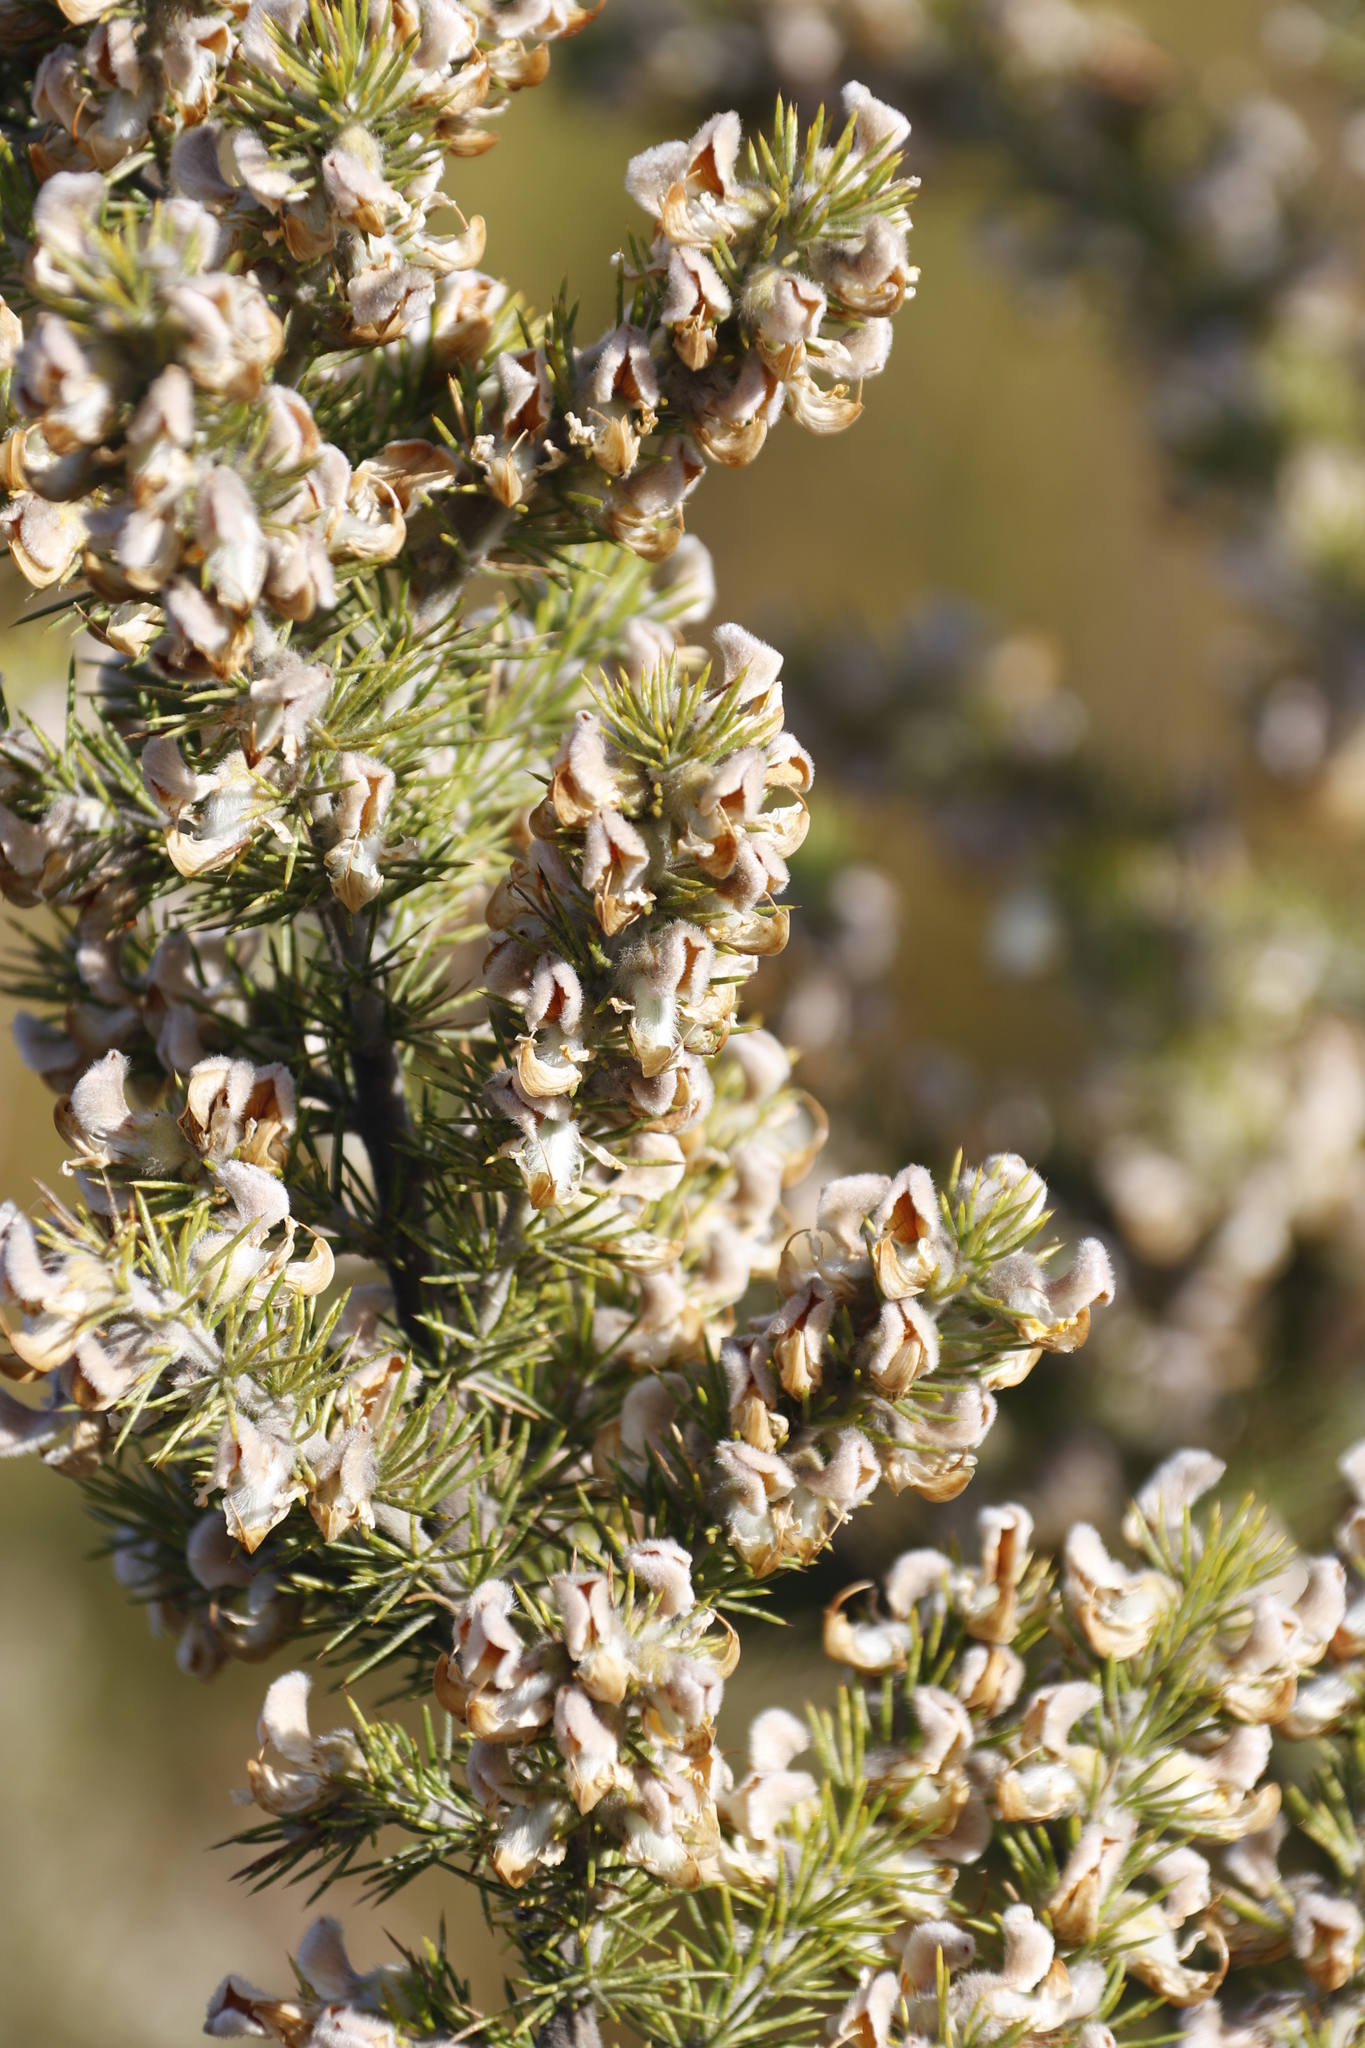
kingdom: Plantae
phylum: Tracheophyta
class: Magnoliopsida
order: Fabales
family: Fabaceae
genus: Aspalathus
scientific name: Aspalathus hirta
